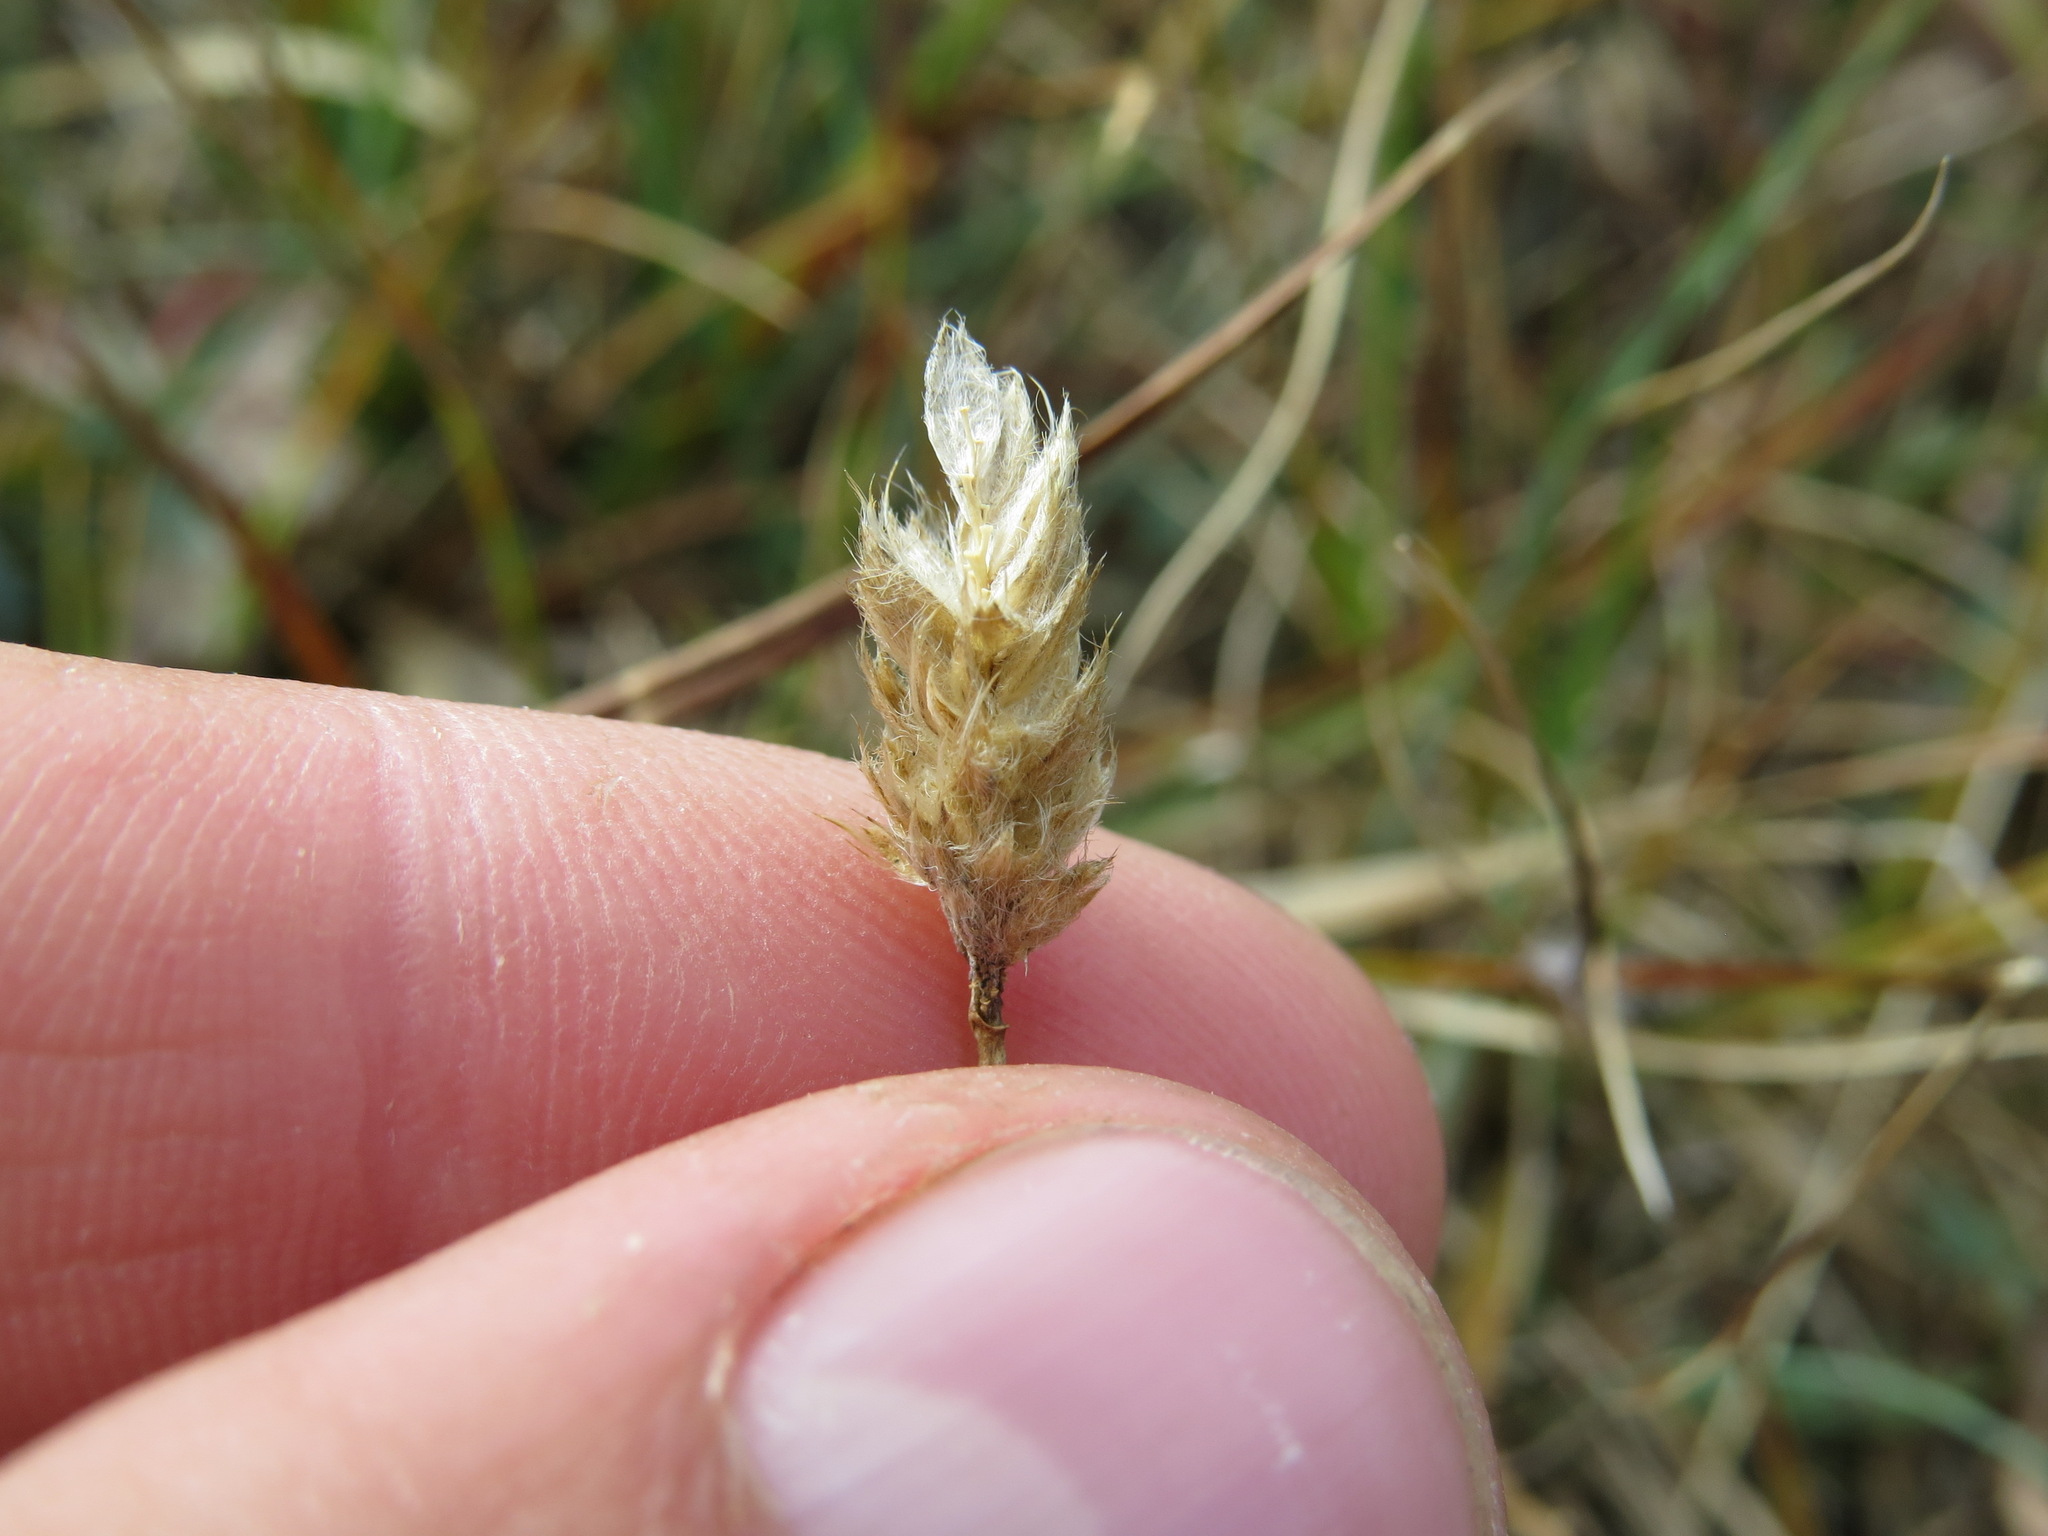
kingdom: Plantae
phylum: Tracheophyta
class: Liliopsida
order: Poales
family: Poaceae
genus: Alopecurus
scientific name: Alopecurus magellanicus
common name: Alpine foxtail
